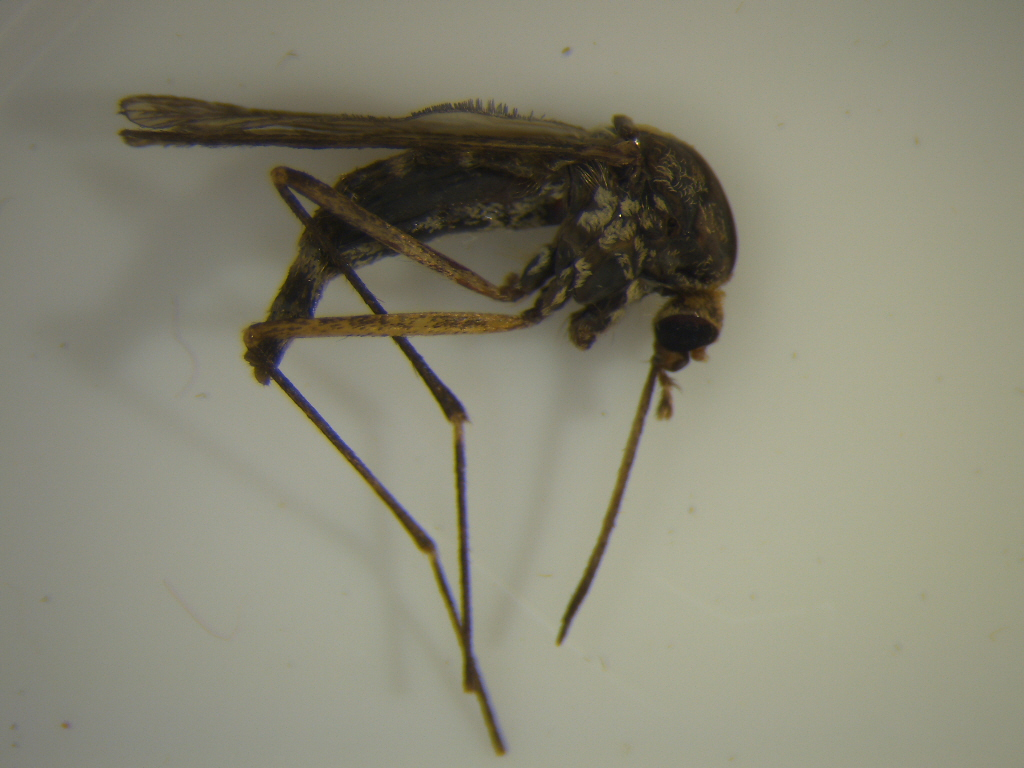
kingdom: Animalia
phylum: Arthropoda
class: Insecta
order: Diptera
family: Culicidae
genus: Aedes
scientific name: Aedes subalbirostris
